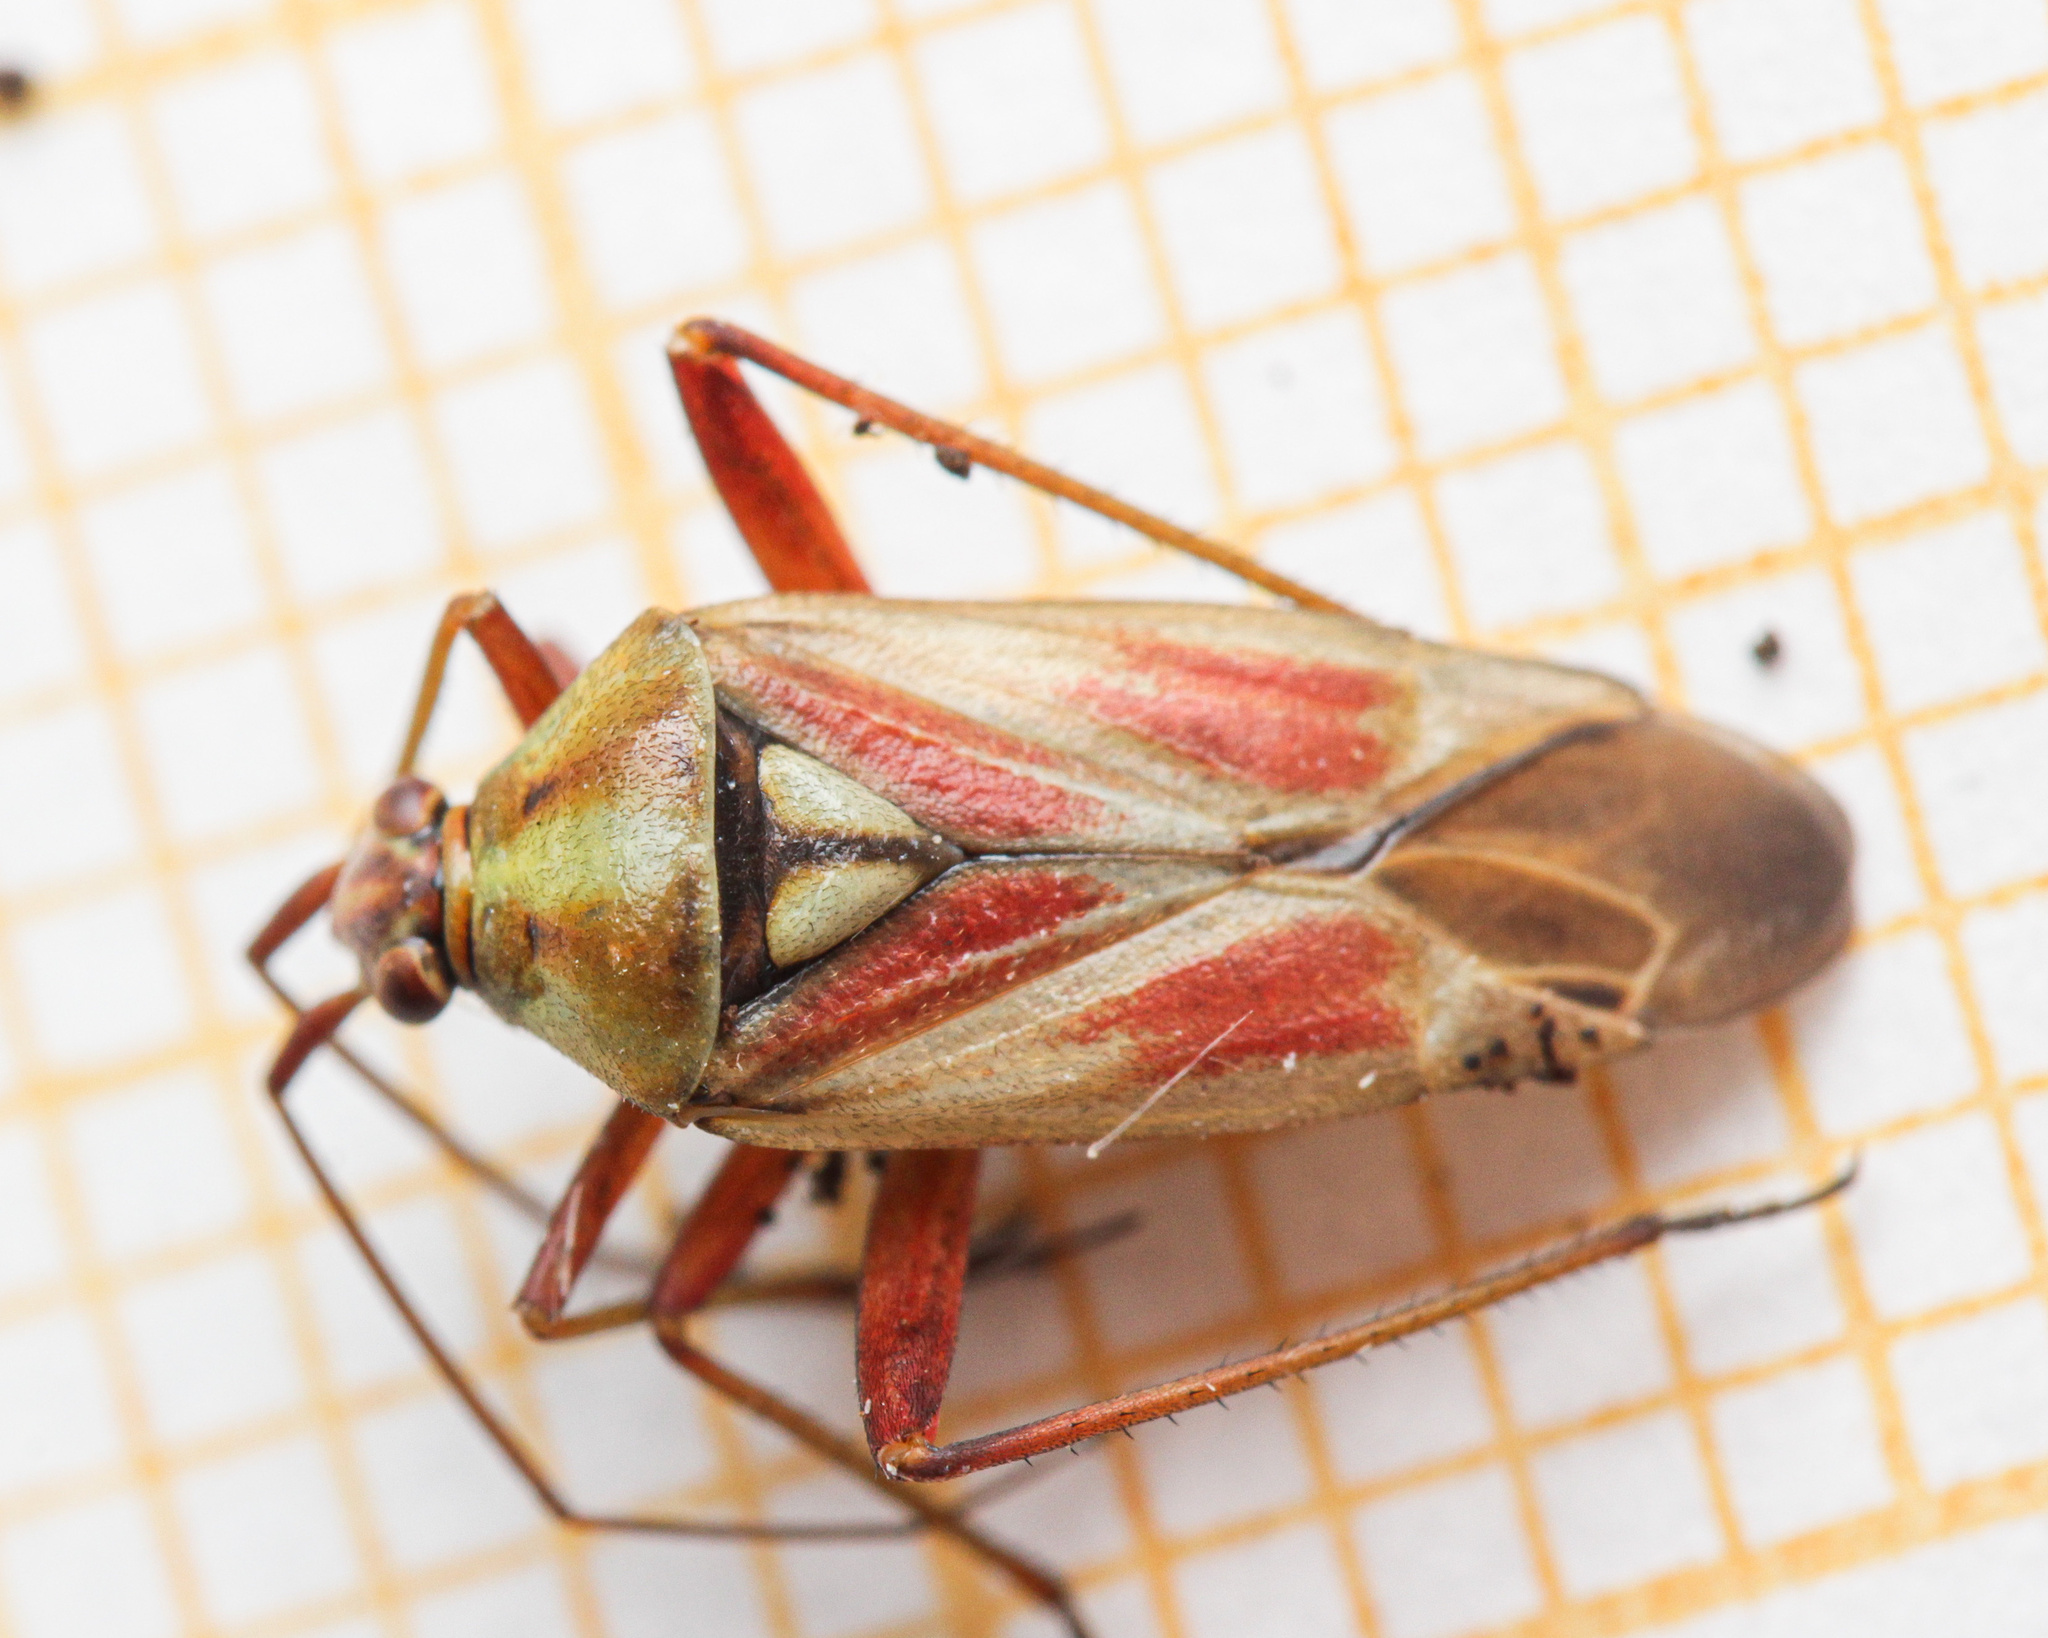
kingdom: Animalia
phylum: Arthropoda
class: Insecta
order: Hemiptera
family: Miridae
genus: Calocoris
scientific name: Calocoris roseomaculatus
